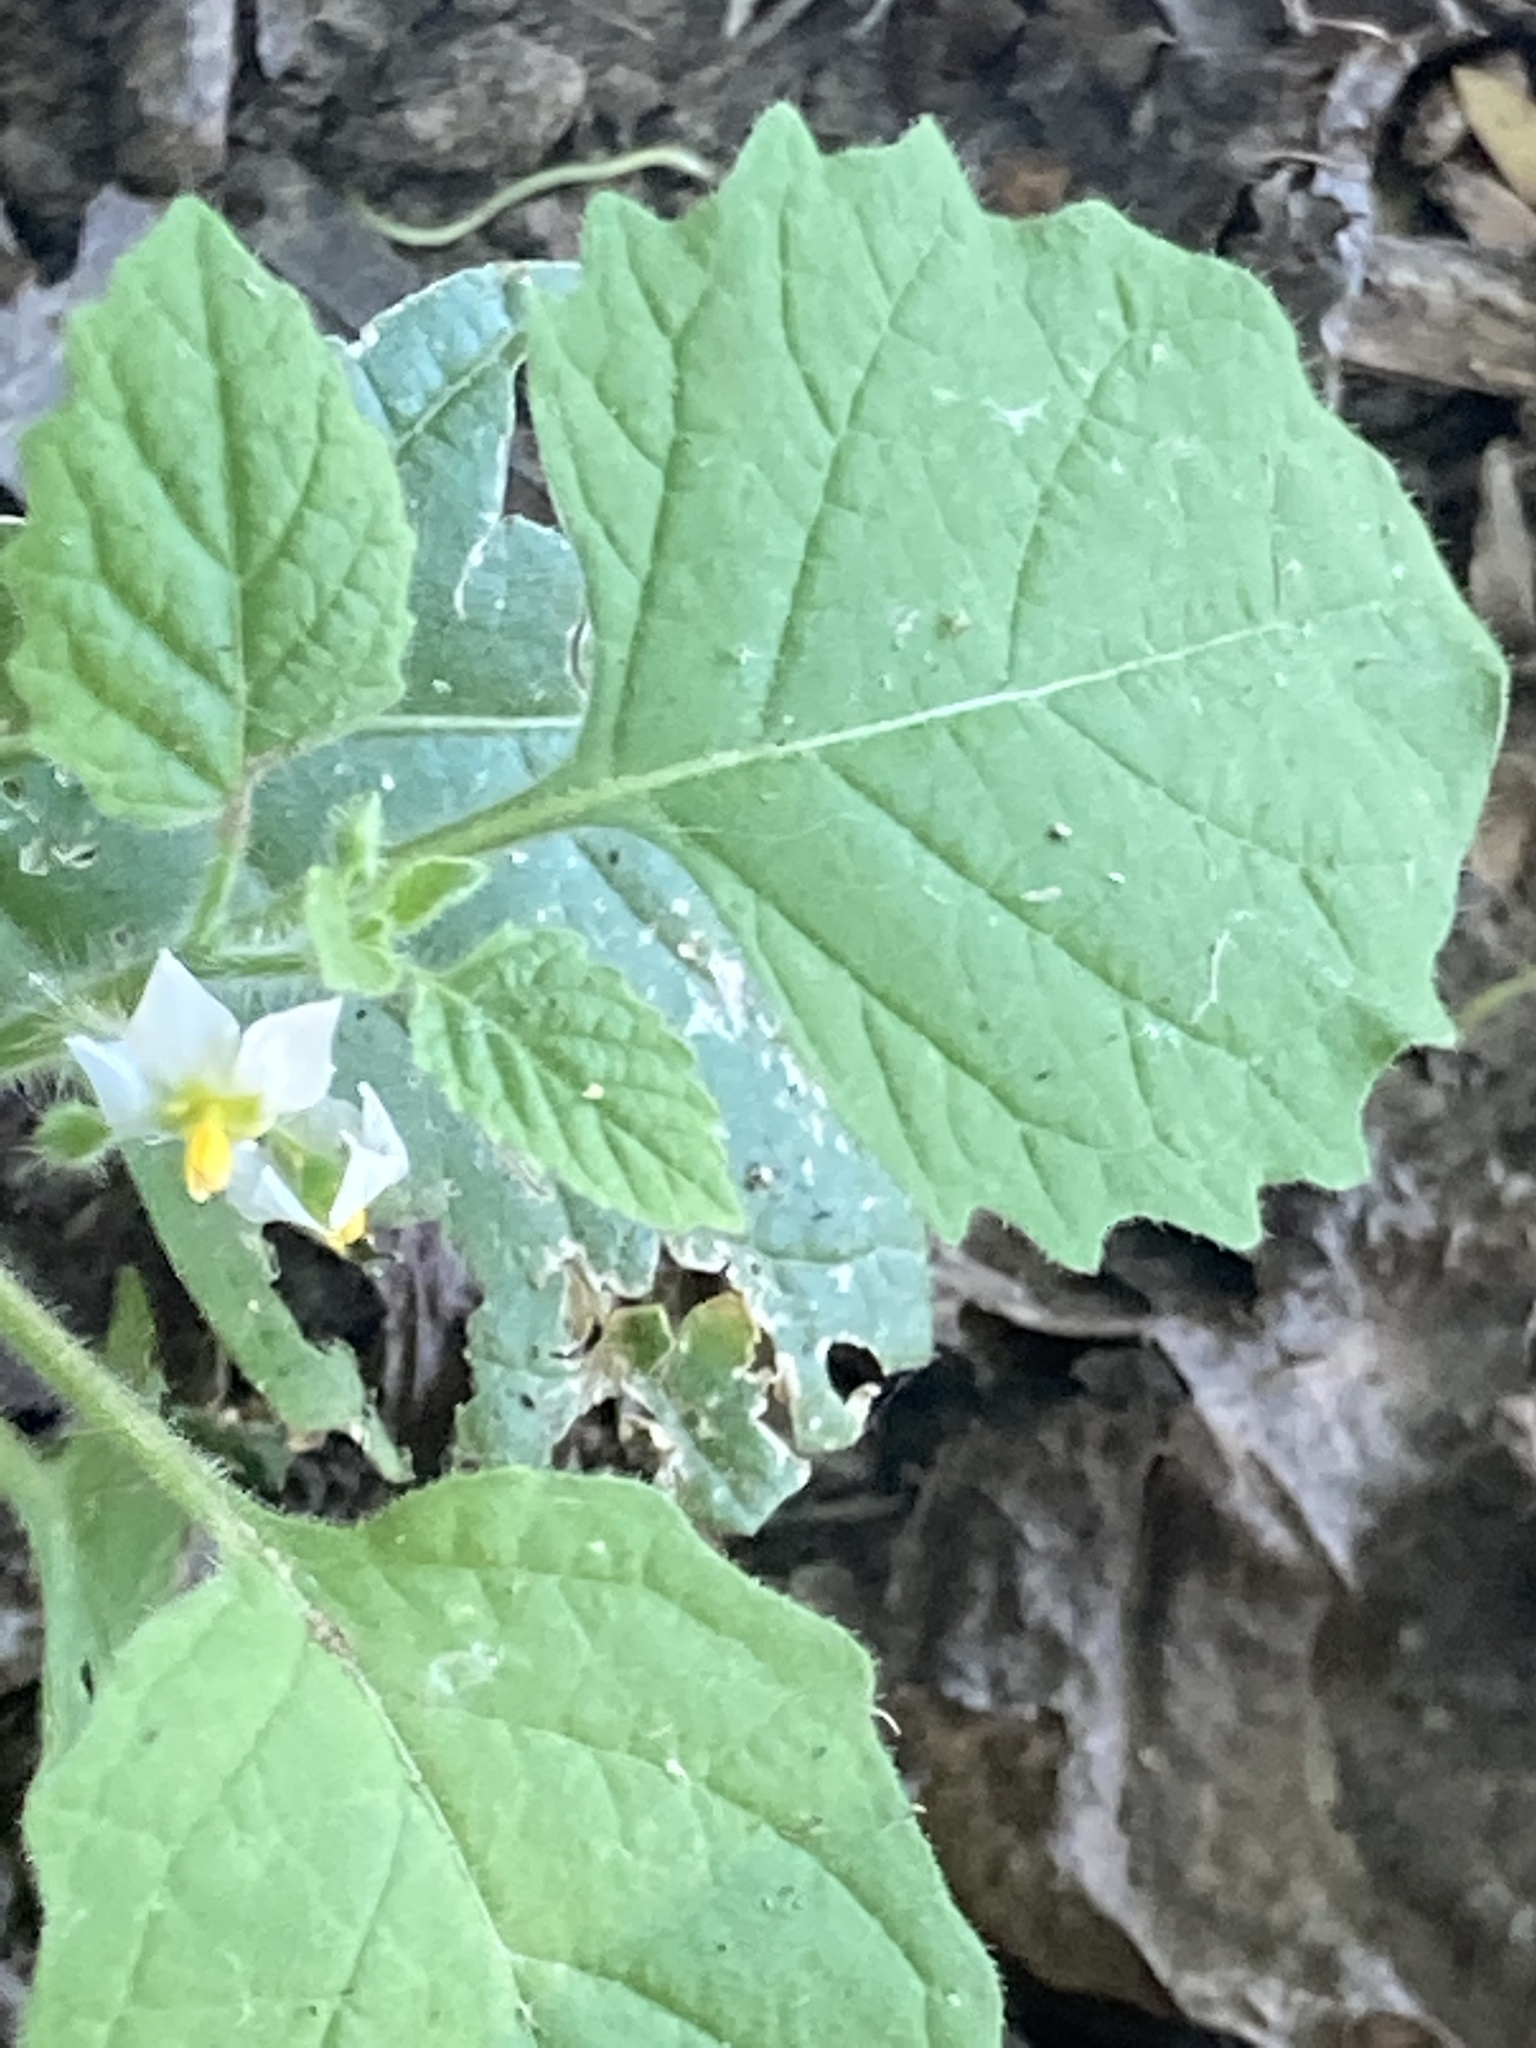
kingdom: Plantae
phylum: Tracheophyta
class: Magnoliopsida
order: Solanales
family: Solanaceae
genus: Solanum
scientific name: Solanum sarrachoides
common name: Leafy-fruited nightshade
